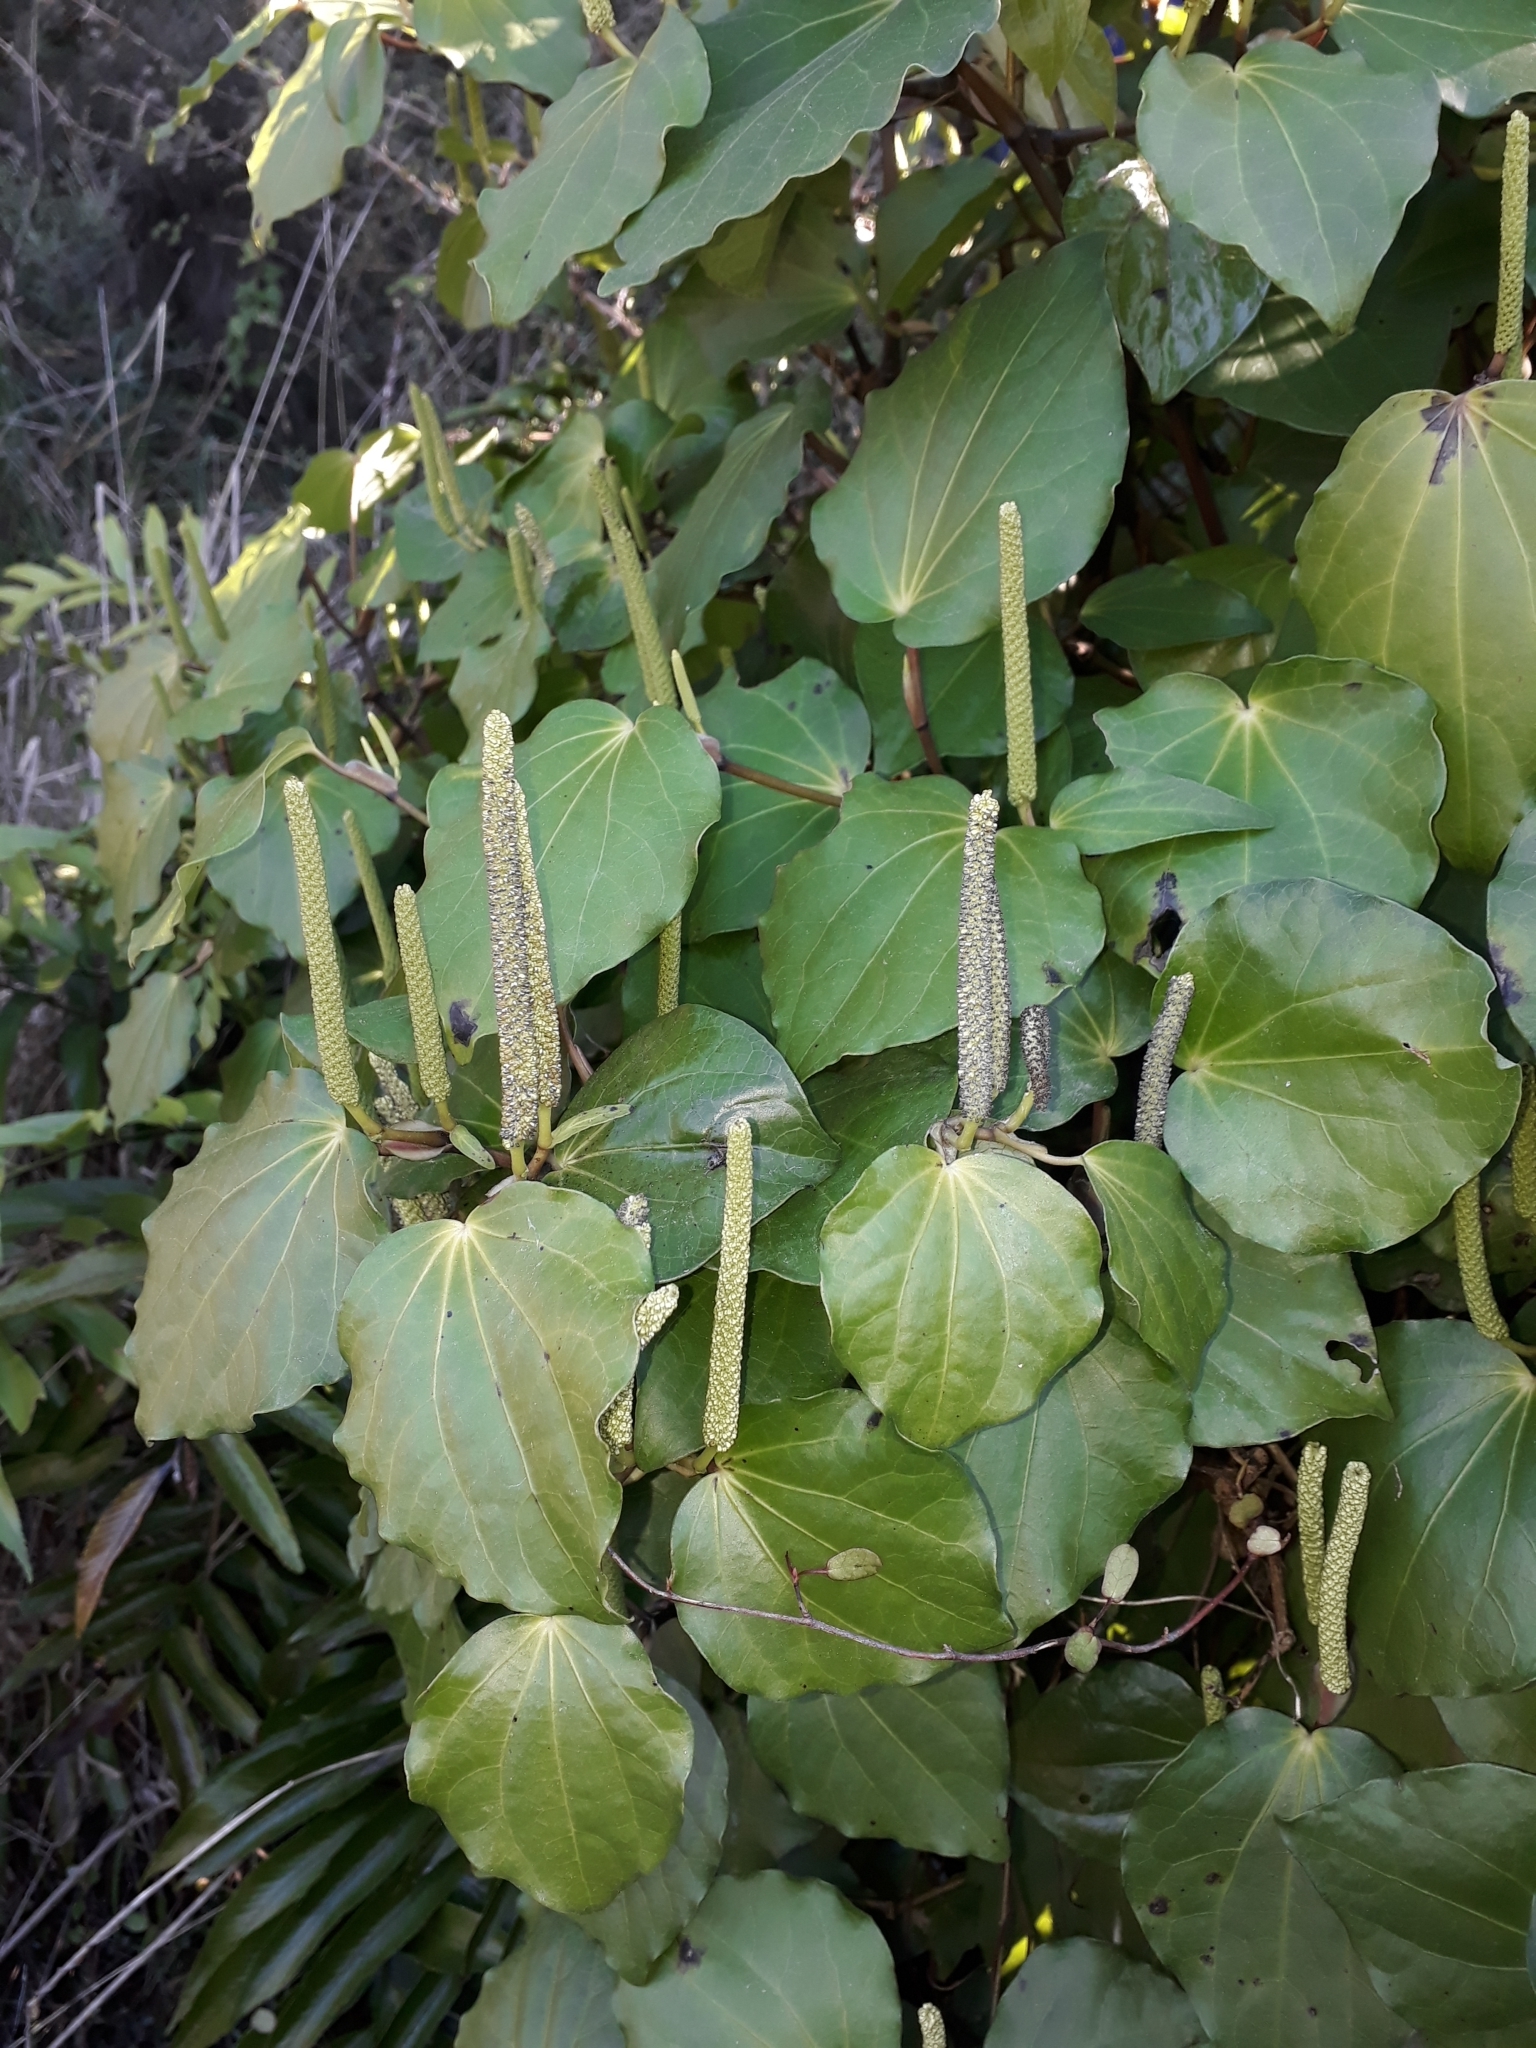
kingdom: Plantae
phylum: Tracheophyta
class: Magnoliopsida
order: Piperales
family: Piperaceae
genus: Macropiper
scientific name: Macropiper excelsum
